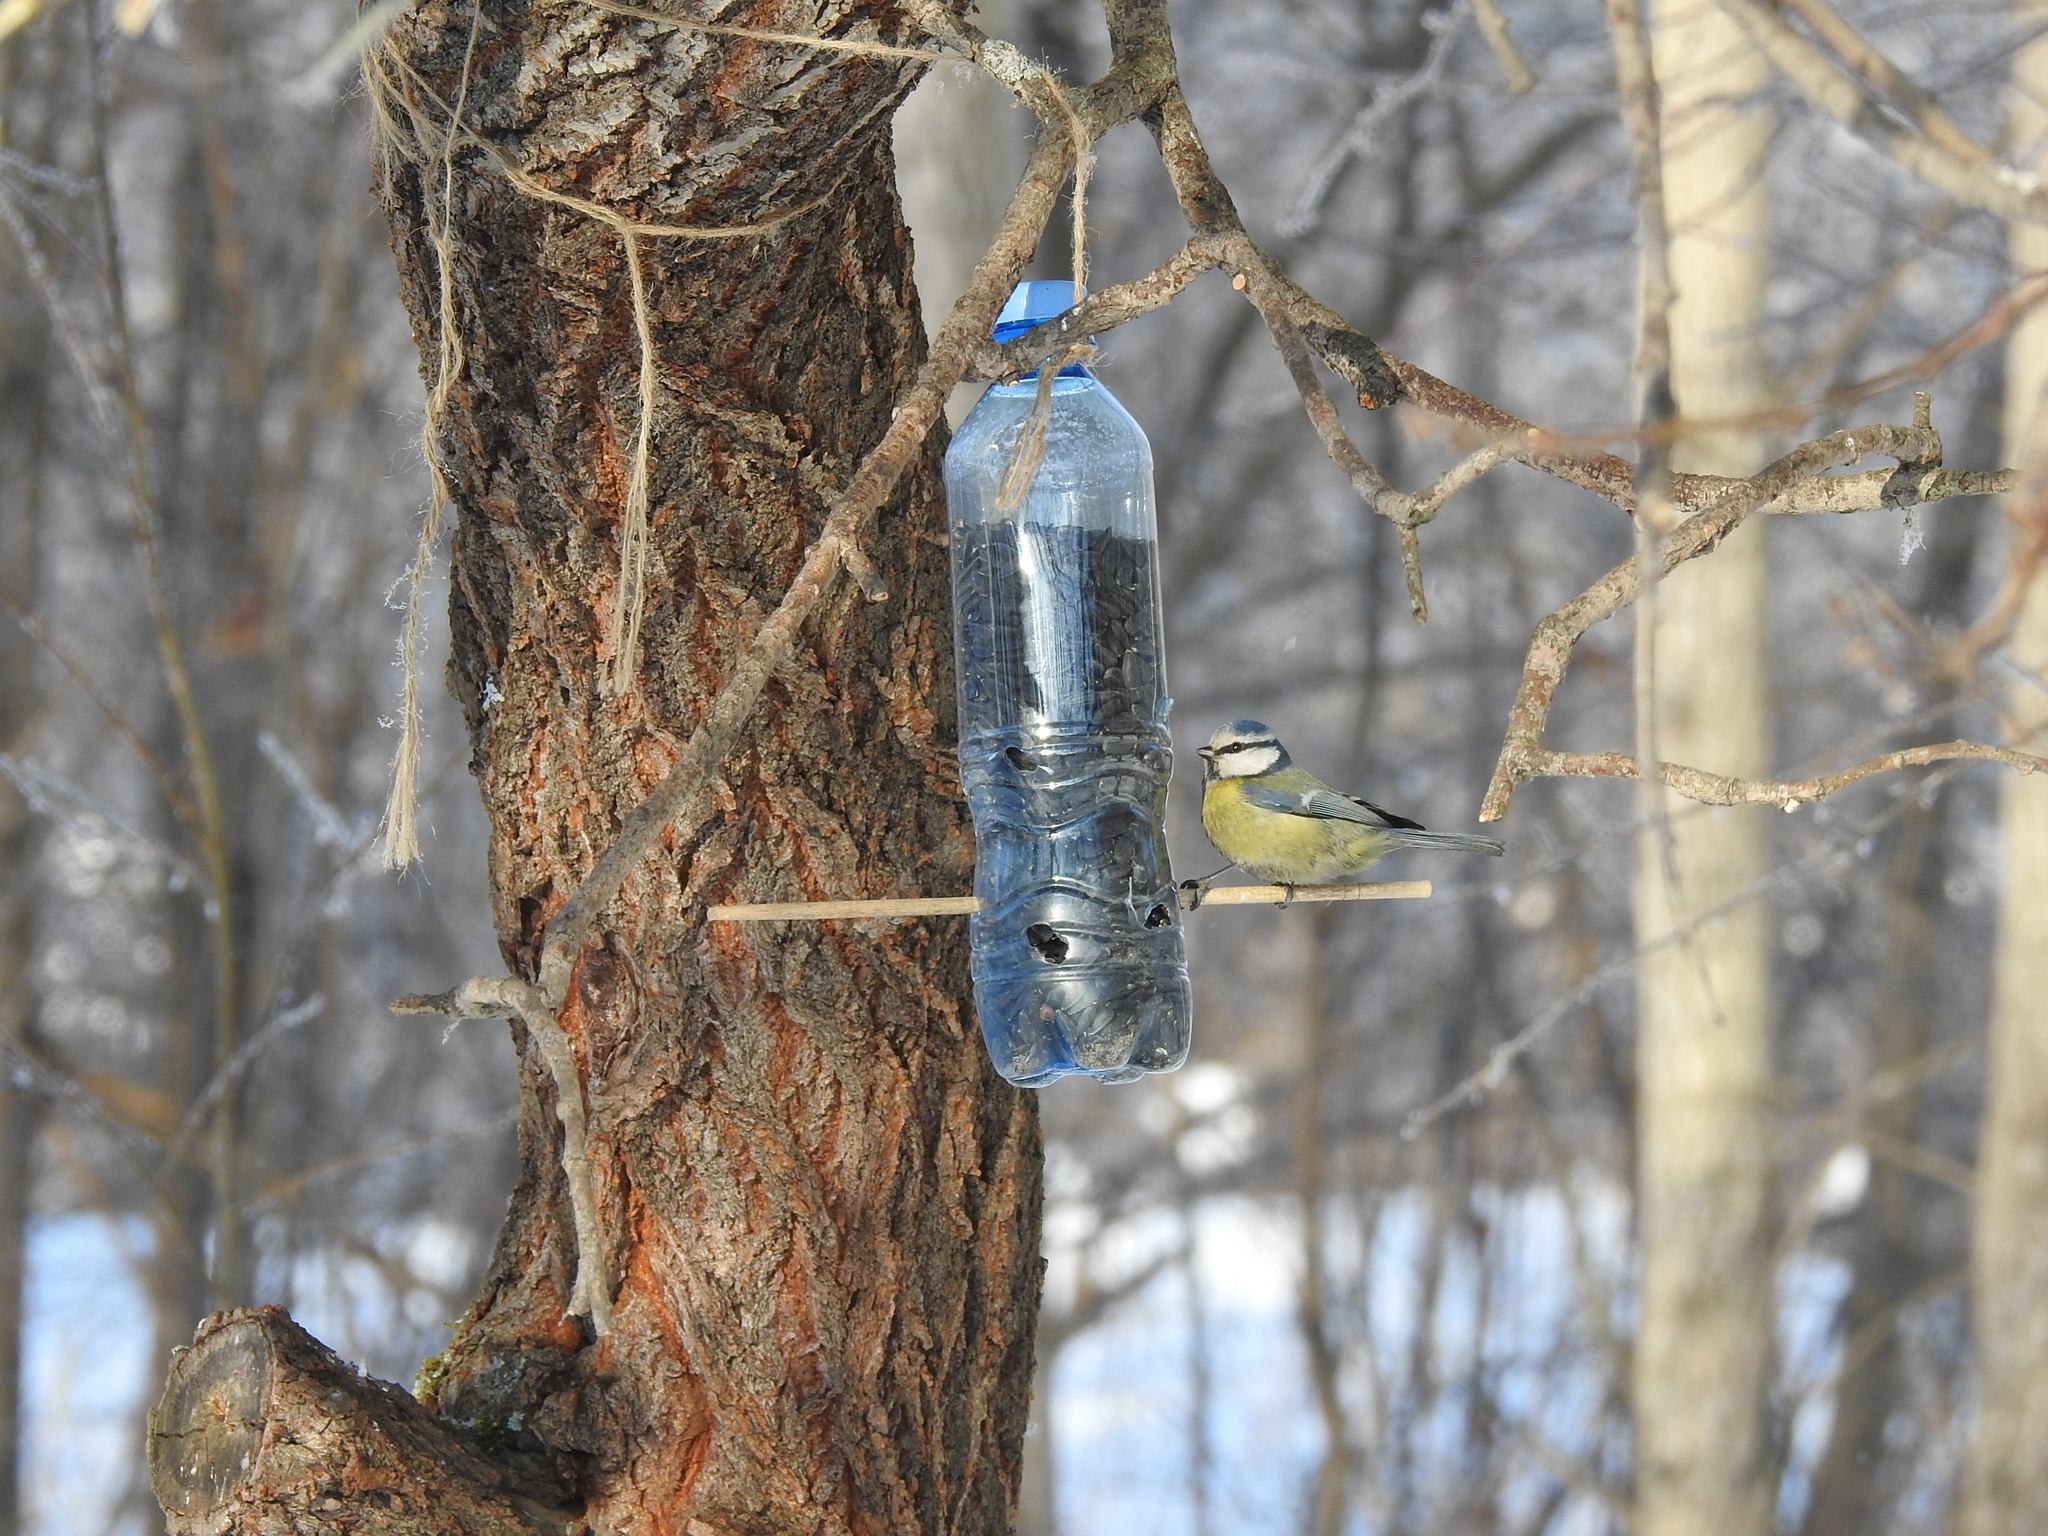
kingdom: Animalia
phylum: Chordata
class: Aves
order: Passeriformes
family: Paridae
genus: Cyanistes
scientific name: Cyanistes caeruleus
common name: Eurasian blue tit
